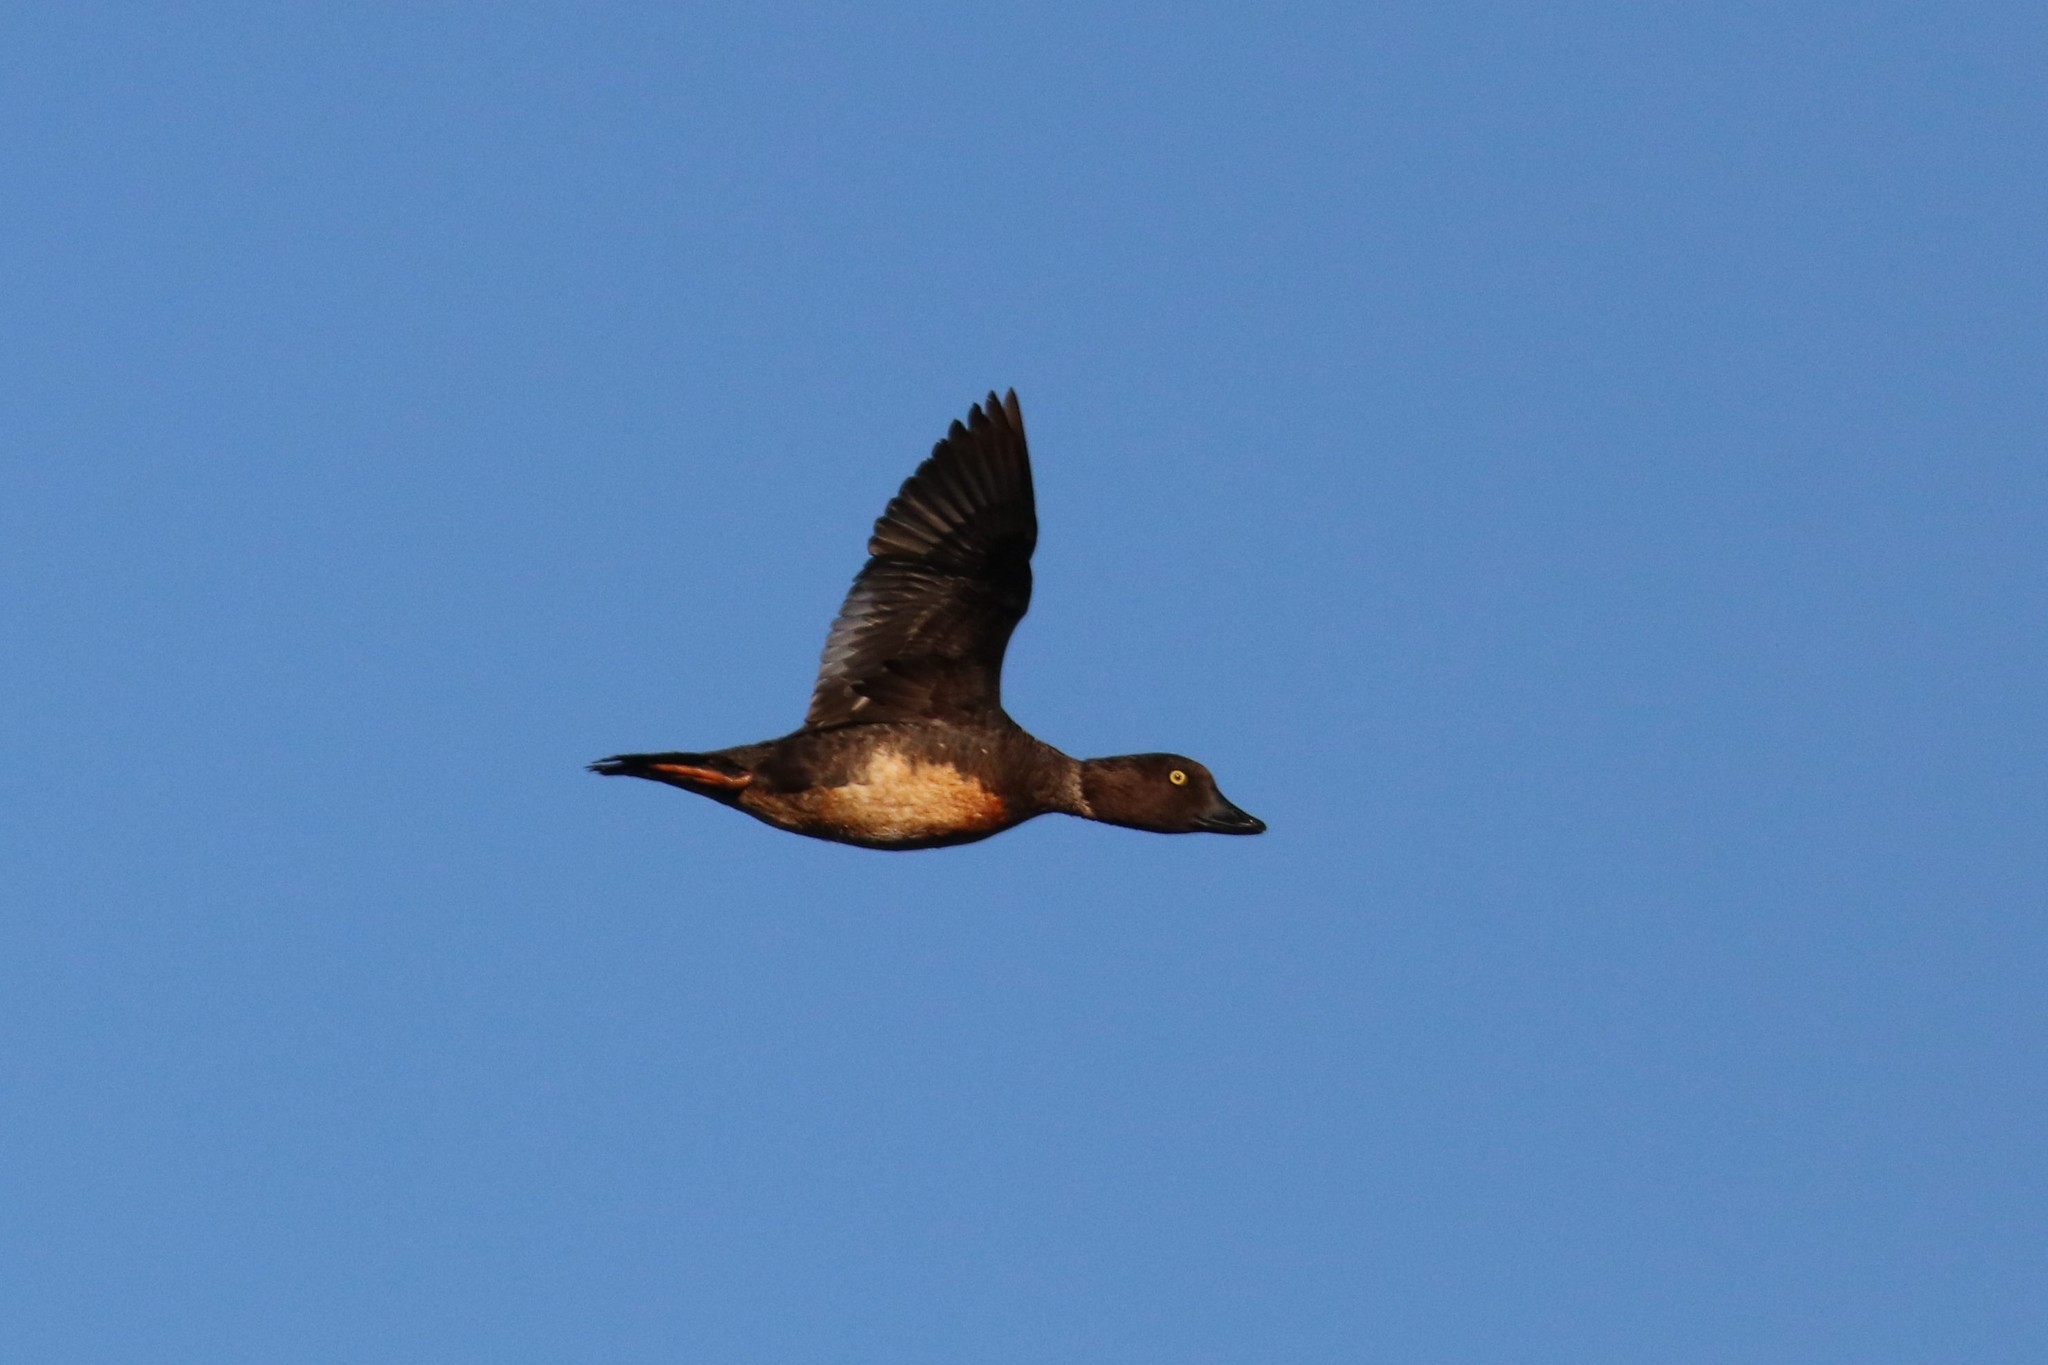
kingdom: Animalia
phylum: Chordata
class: Aves
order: Anseriformes
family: Anatidae
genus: Bucephala
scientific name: Bucephala clangula
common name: Common goldeneye
